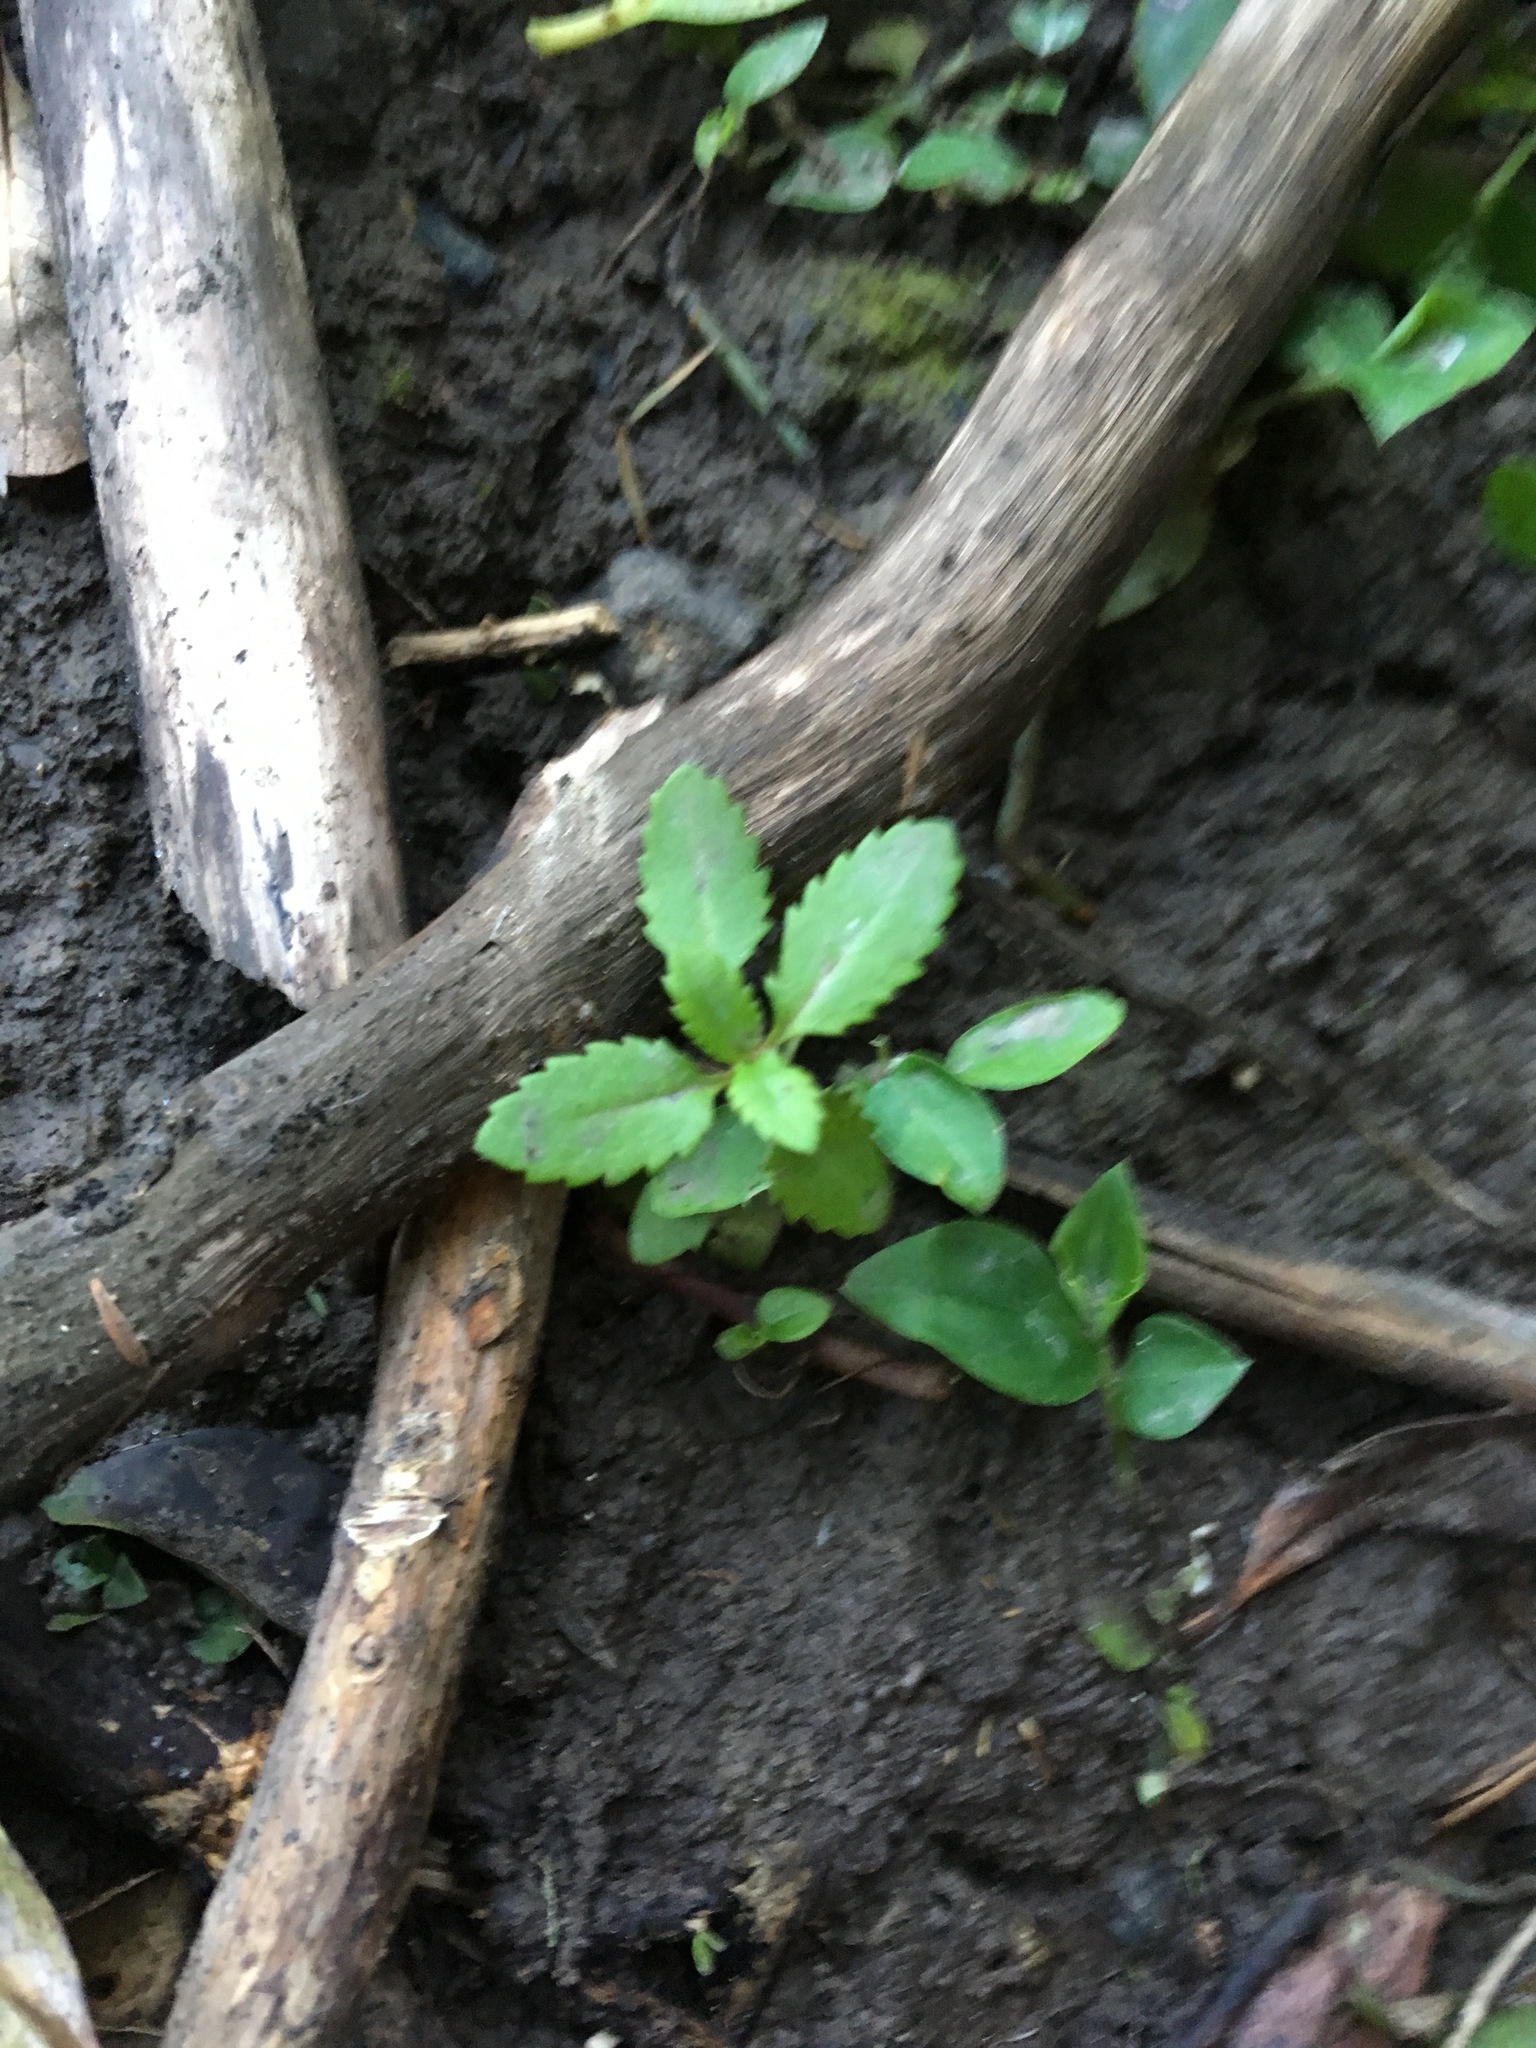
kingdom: Plantae
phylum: Tracheophyta
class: Magnoliopsida
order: Saxifragales
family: Haloragaceae
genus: Haloragis
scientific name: Haloragis erecta
